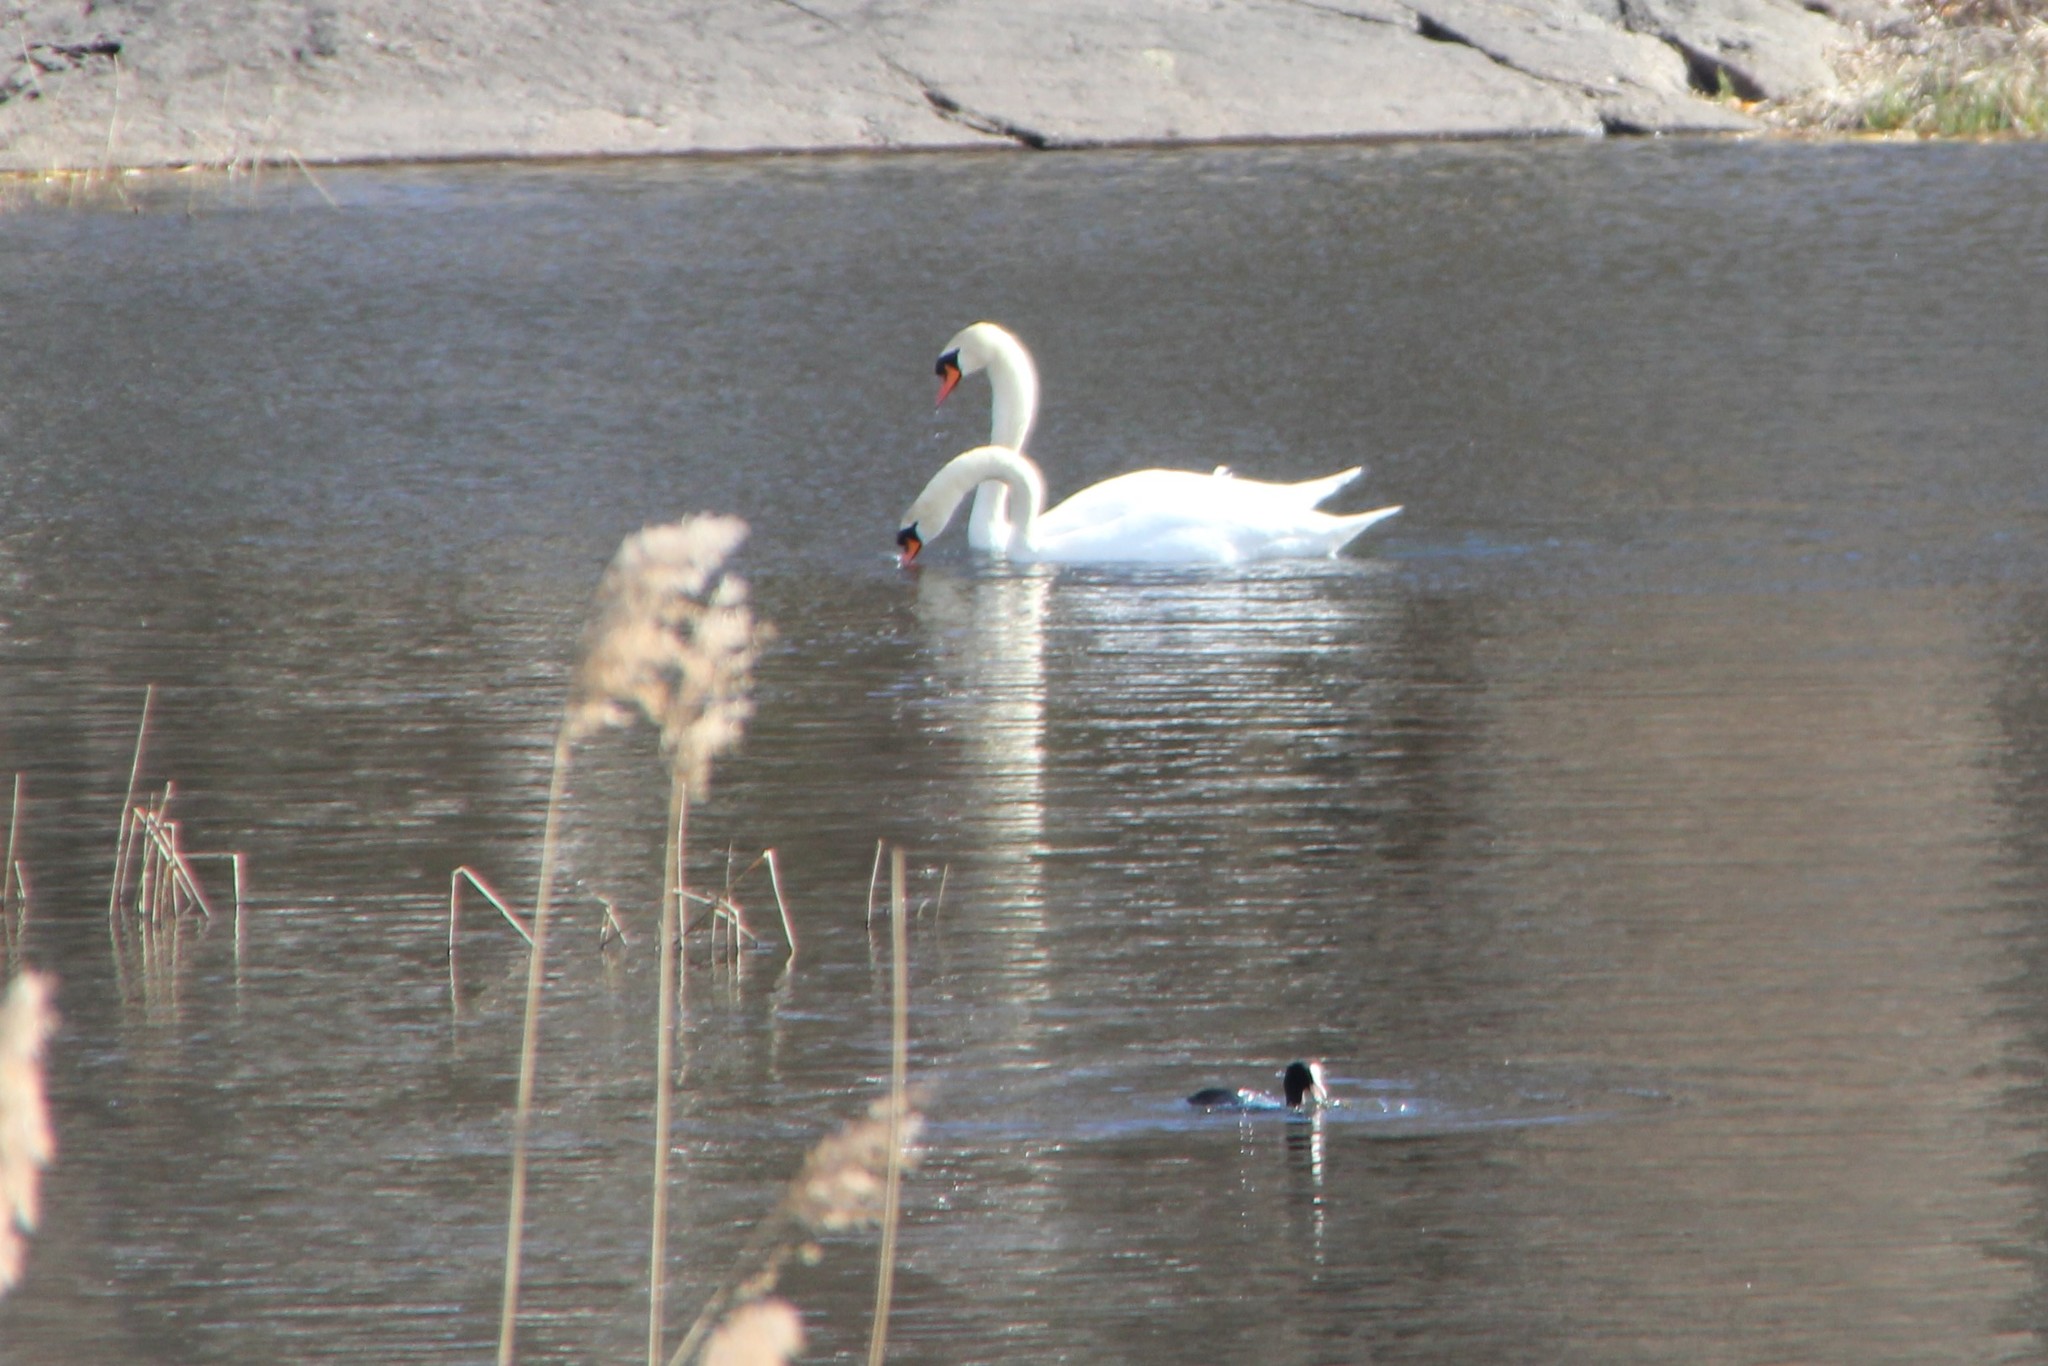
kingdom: Animalia
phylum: Chordata
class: Aves
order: Anseriformes
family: Anatidae
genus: Cygnus
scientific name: Cygnus olor
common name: Mute swan
